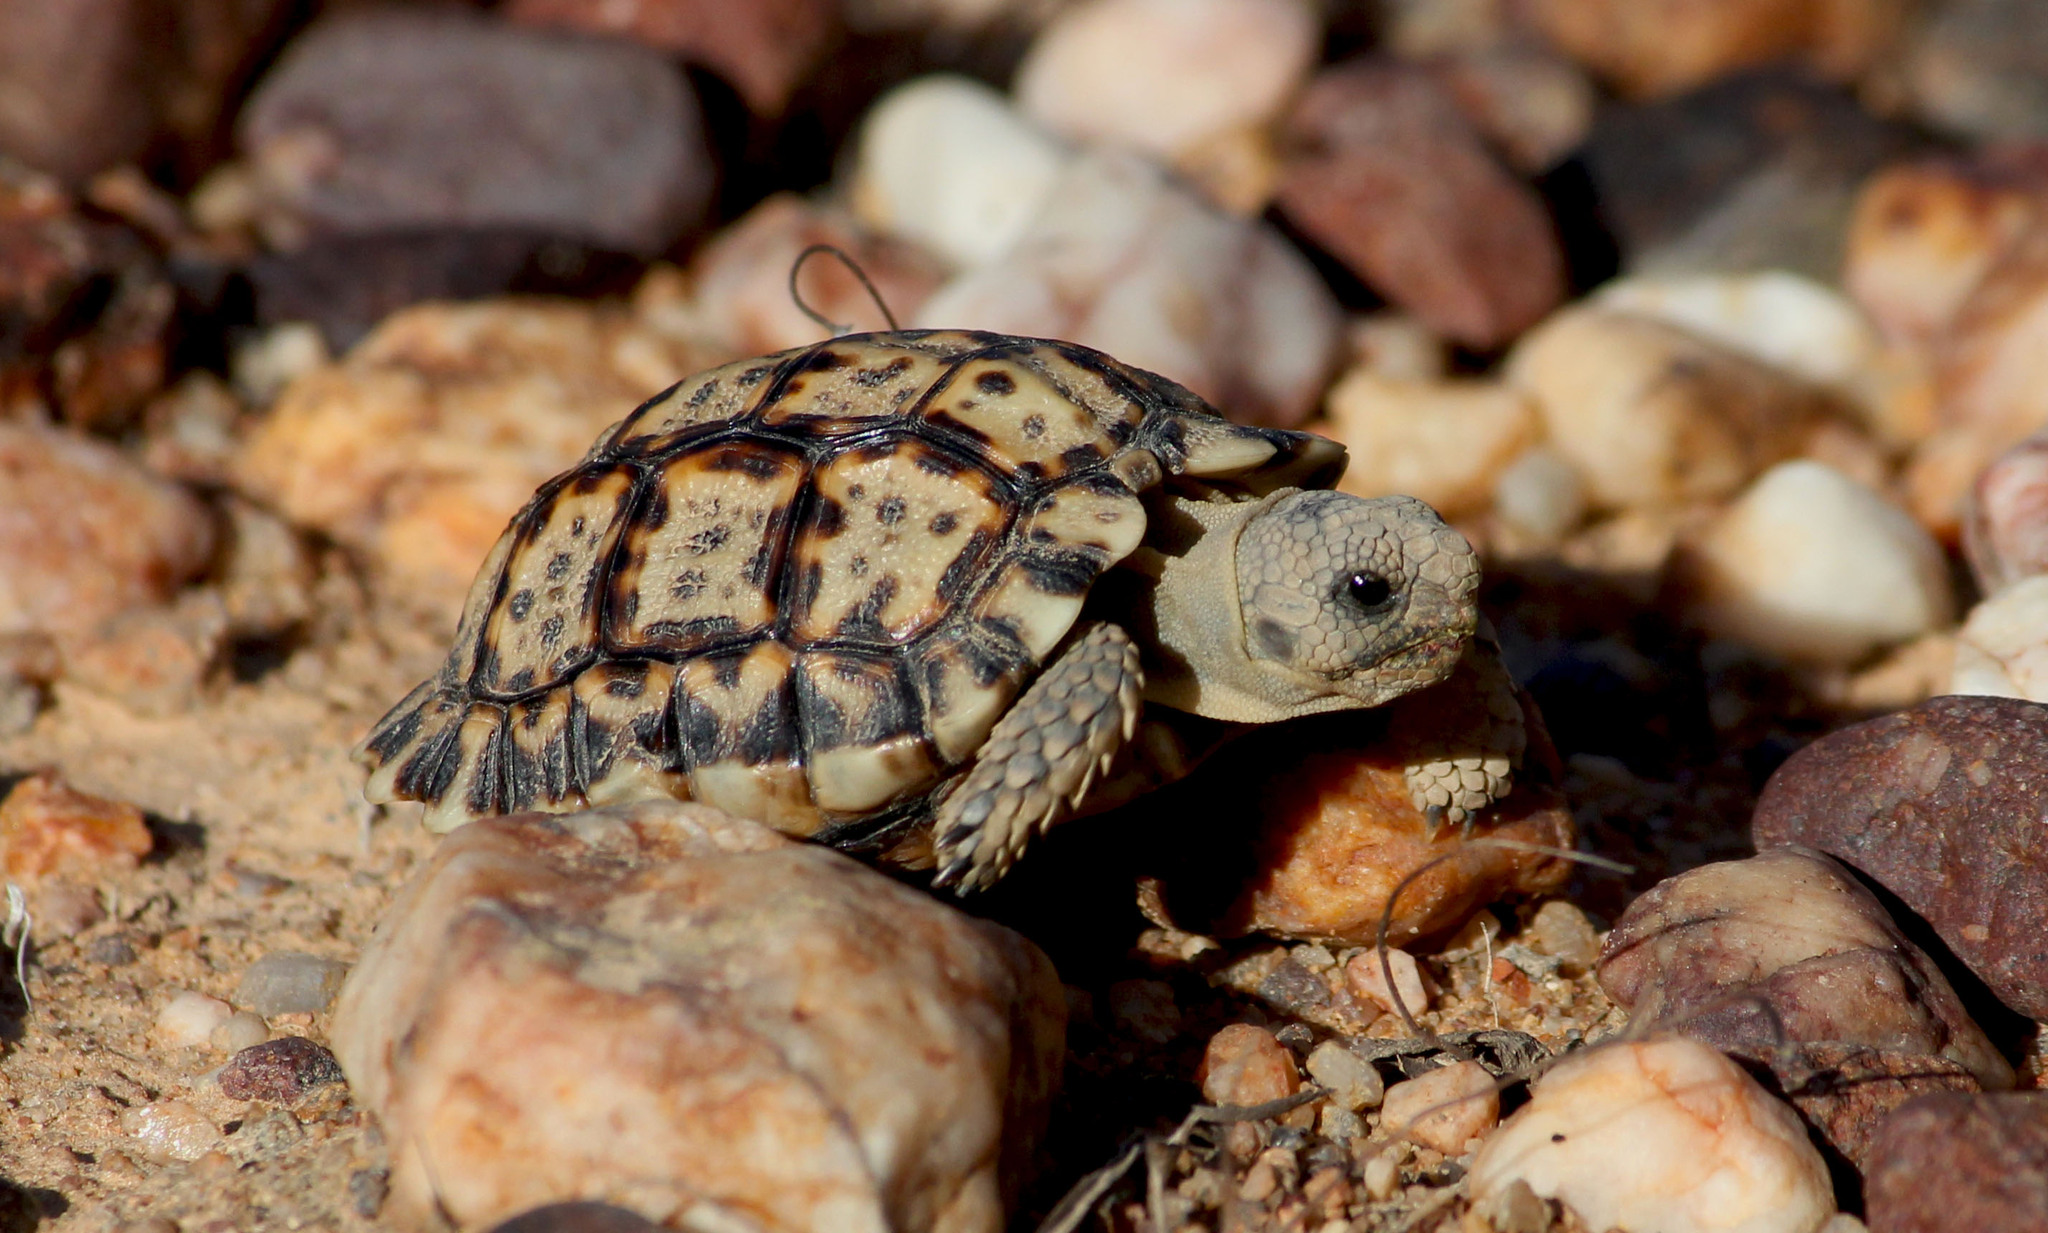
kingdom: Animalia
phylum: Chordata
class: Testudines
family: Testudinidae
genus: Chersobius
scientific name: Chersobius signatus
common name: Speckled cape tortoise
